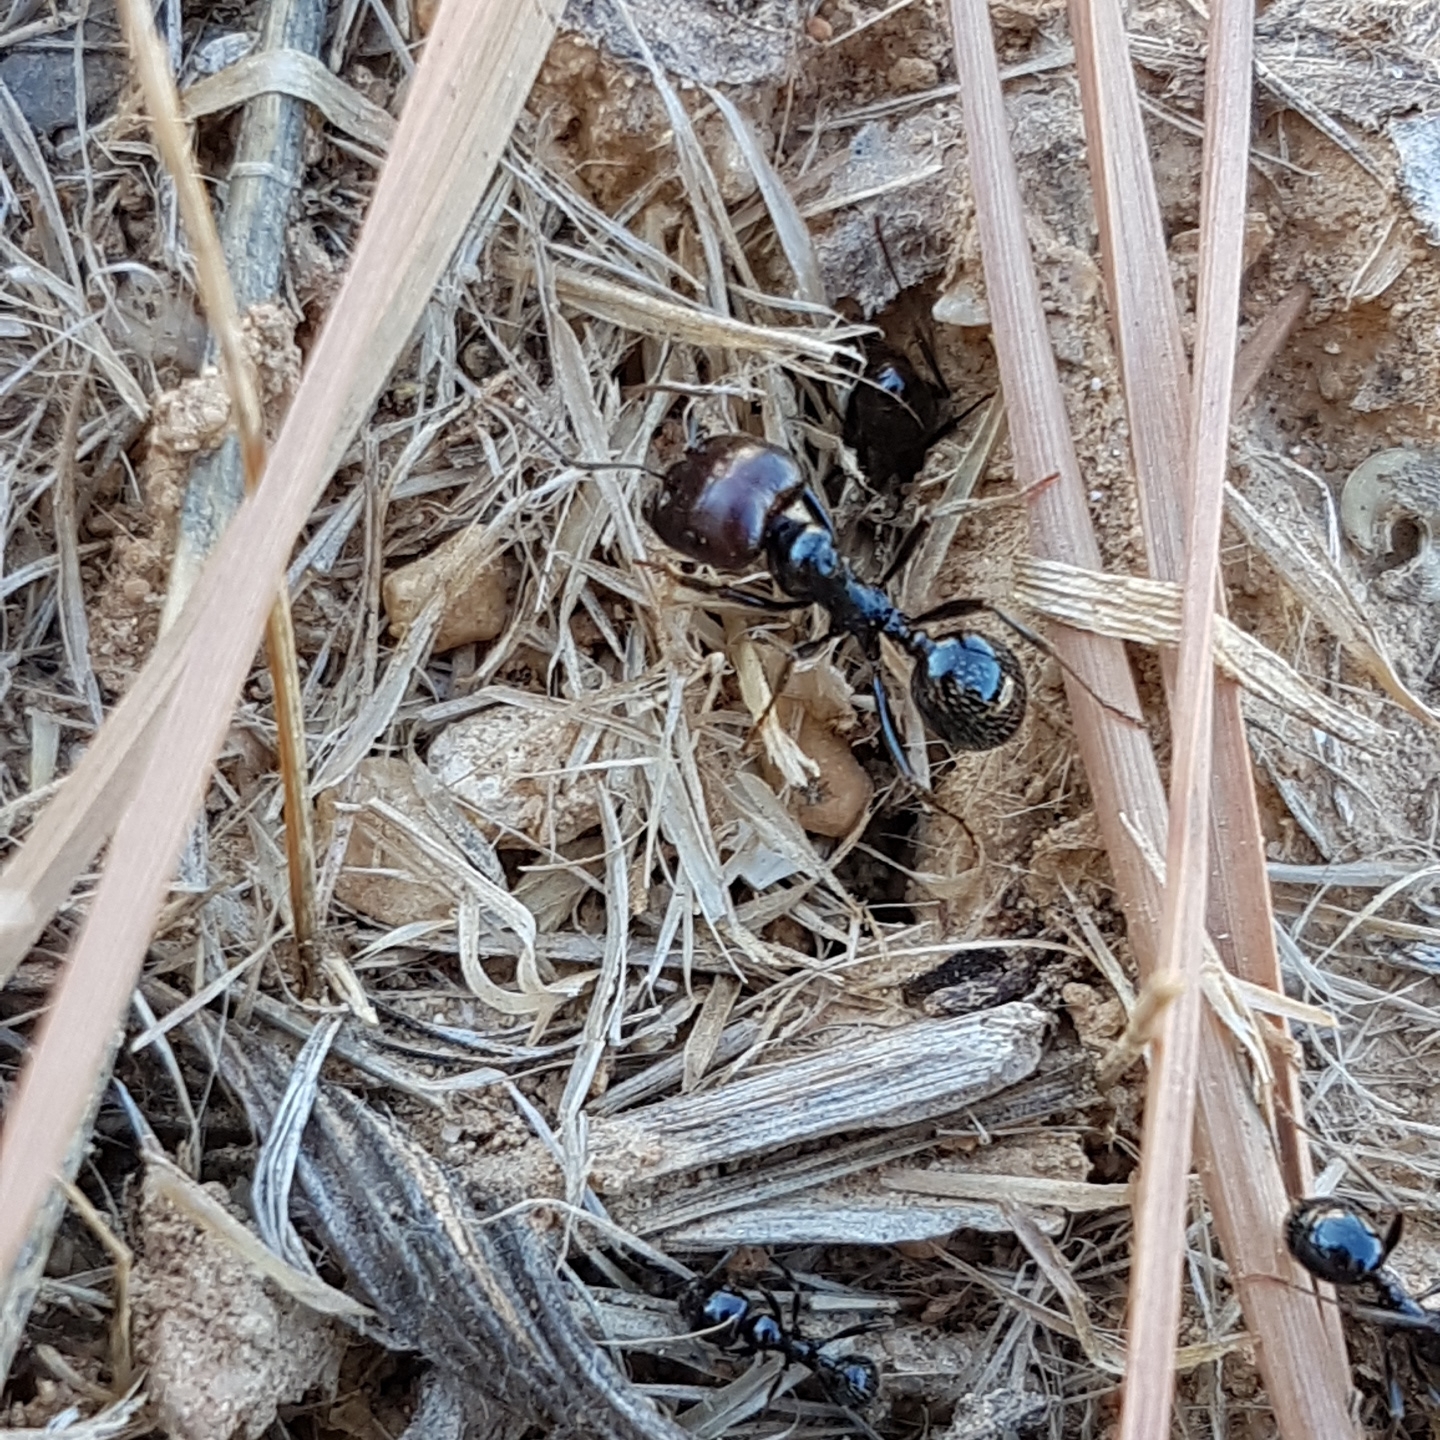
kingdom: Animalia
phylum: Arthropoda
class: Insecta
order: Hymenoptera
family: Formicidae
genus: Messor
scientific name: Messor barbarus
